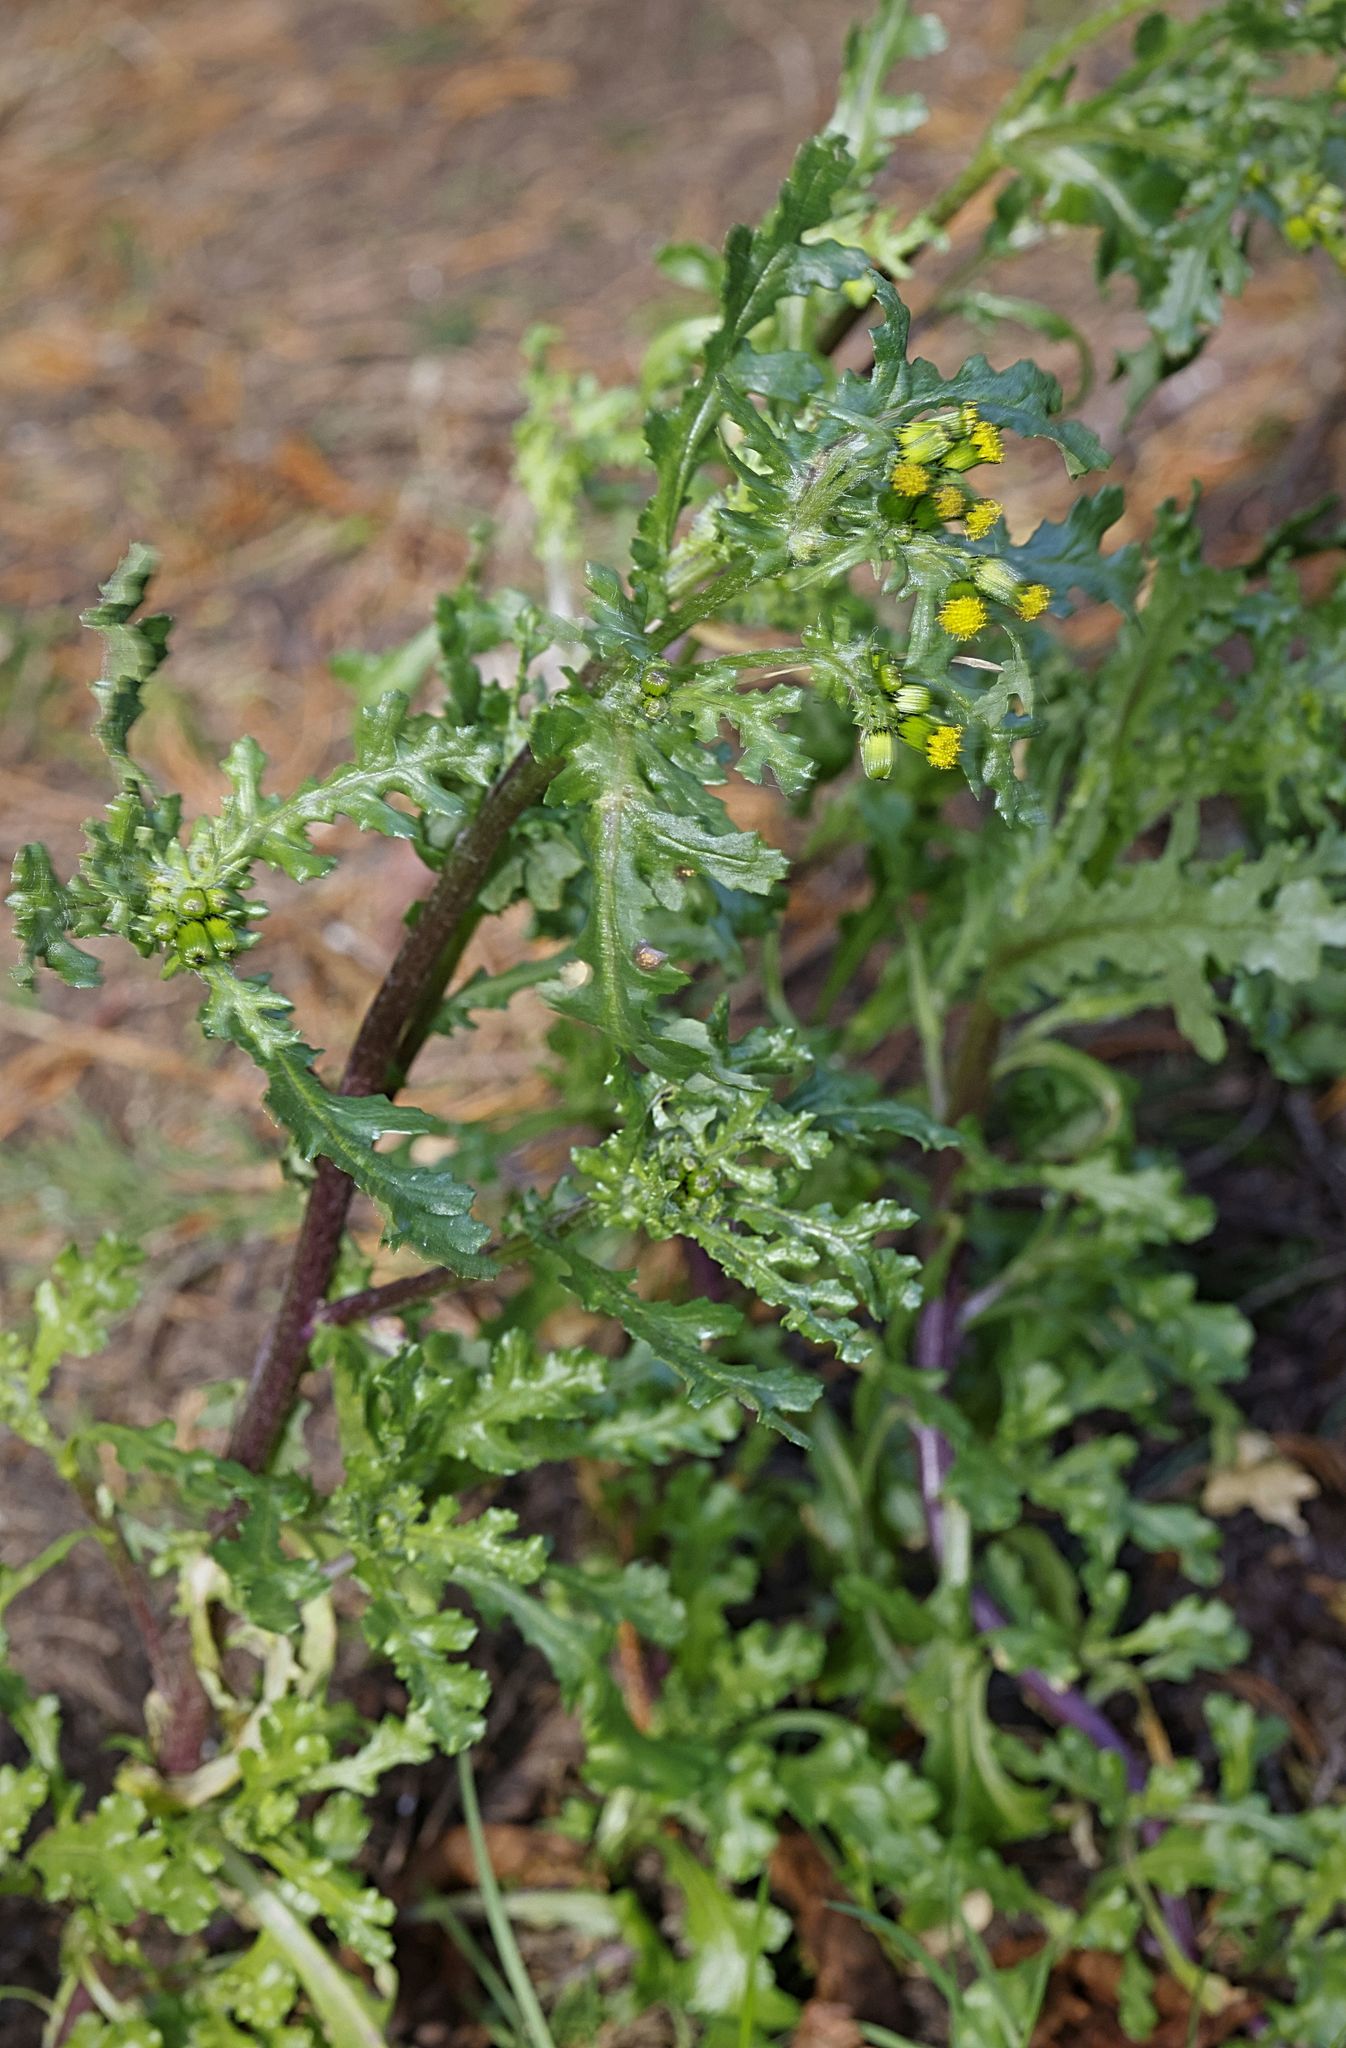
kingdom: Plantae
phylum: Tracheophyta
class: Magnoliopsida
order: Asterales
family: Asteraceae
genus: Senecio
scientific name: Senecio vulgaris
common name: Old-man-in-the-spring
